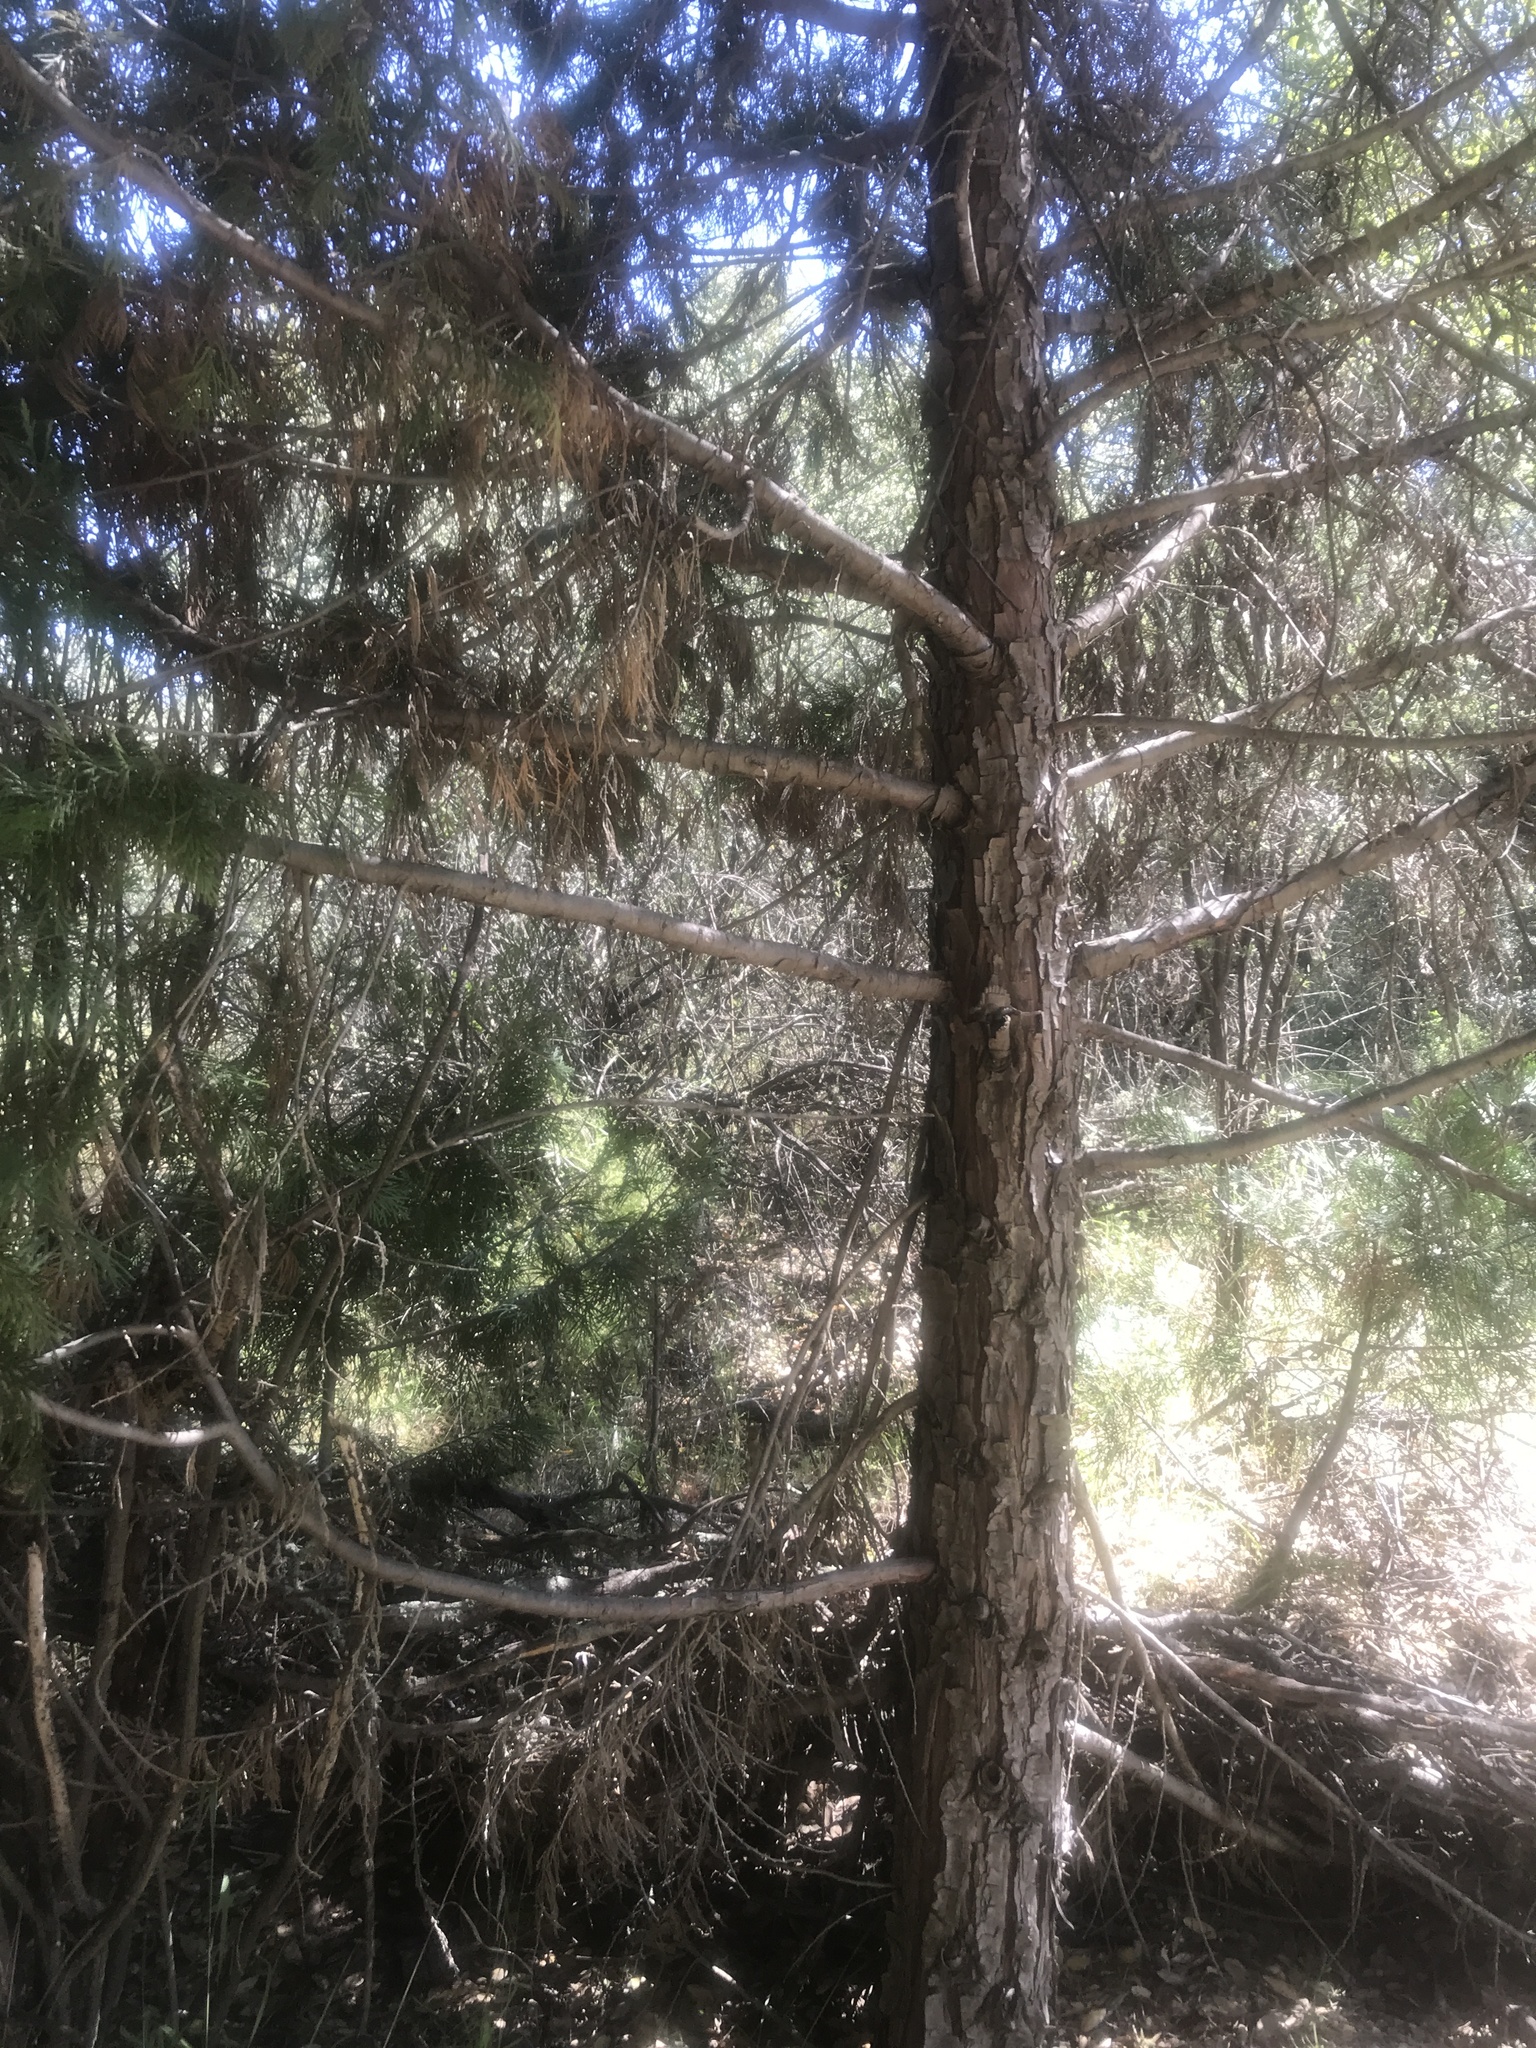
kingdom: Plantae
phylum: Tracheophyta
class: Pinopsida
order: Pinales
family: Cupressaceae
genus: Calocedrus
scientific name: Calocedrus decurrens
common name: Californian incense-cedar
